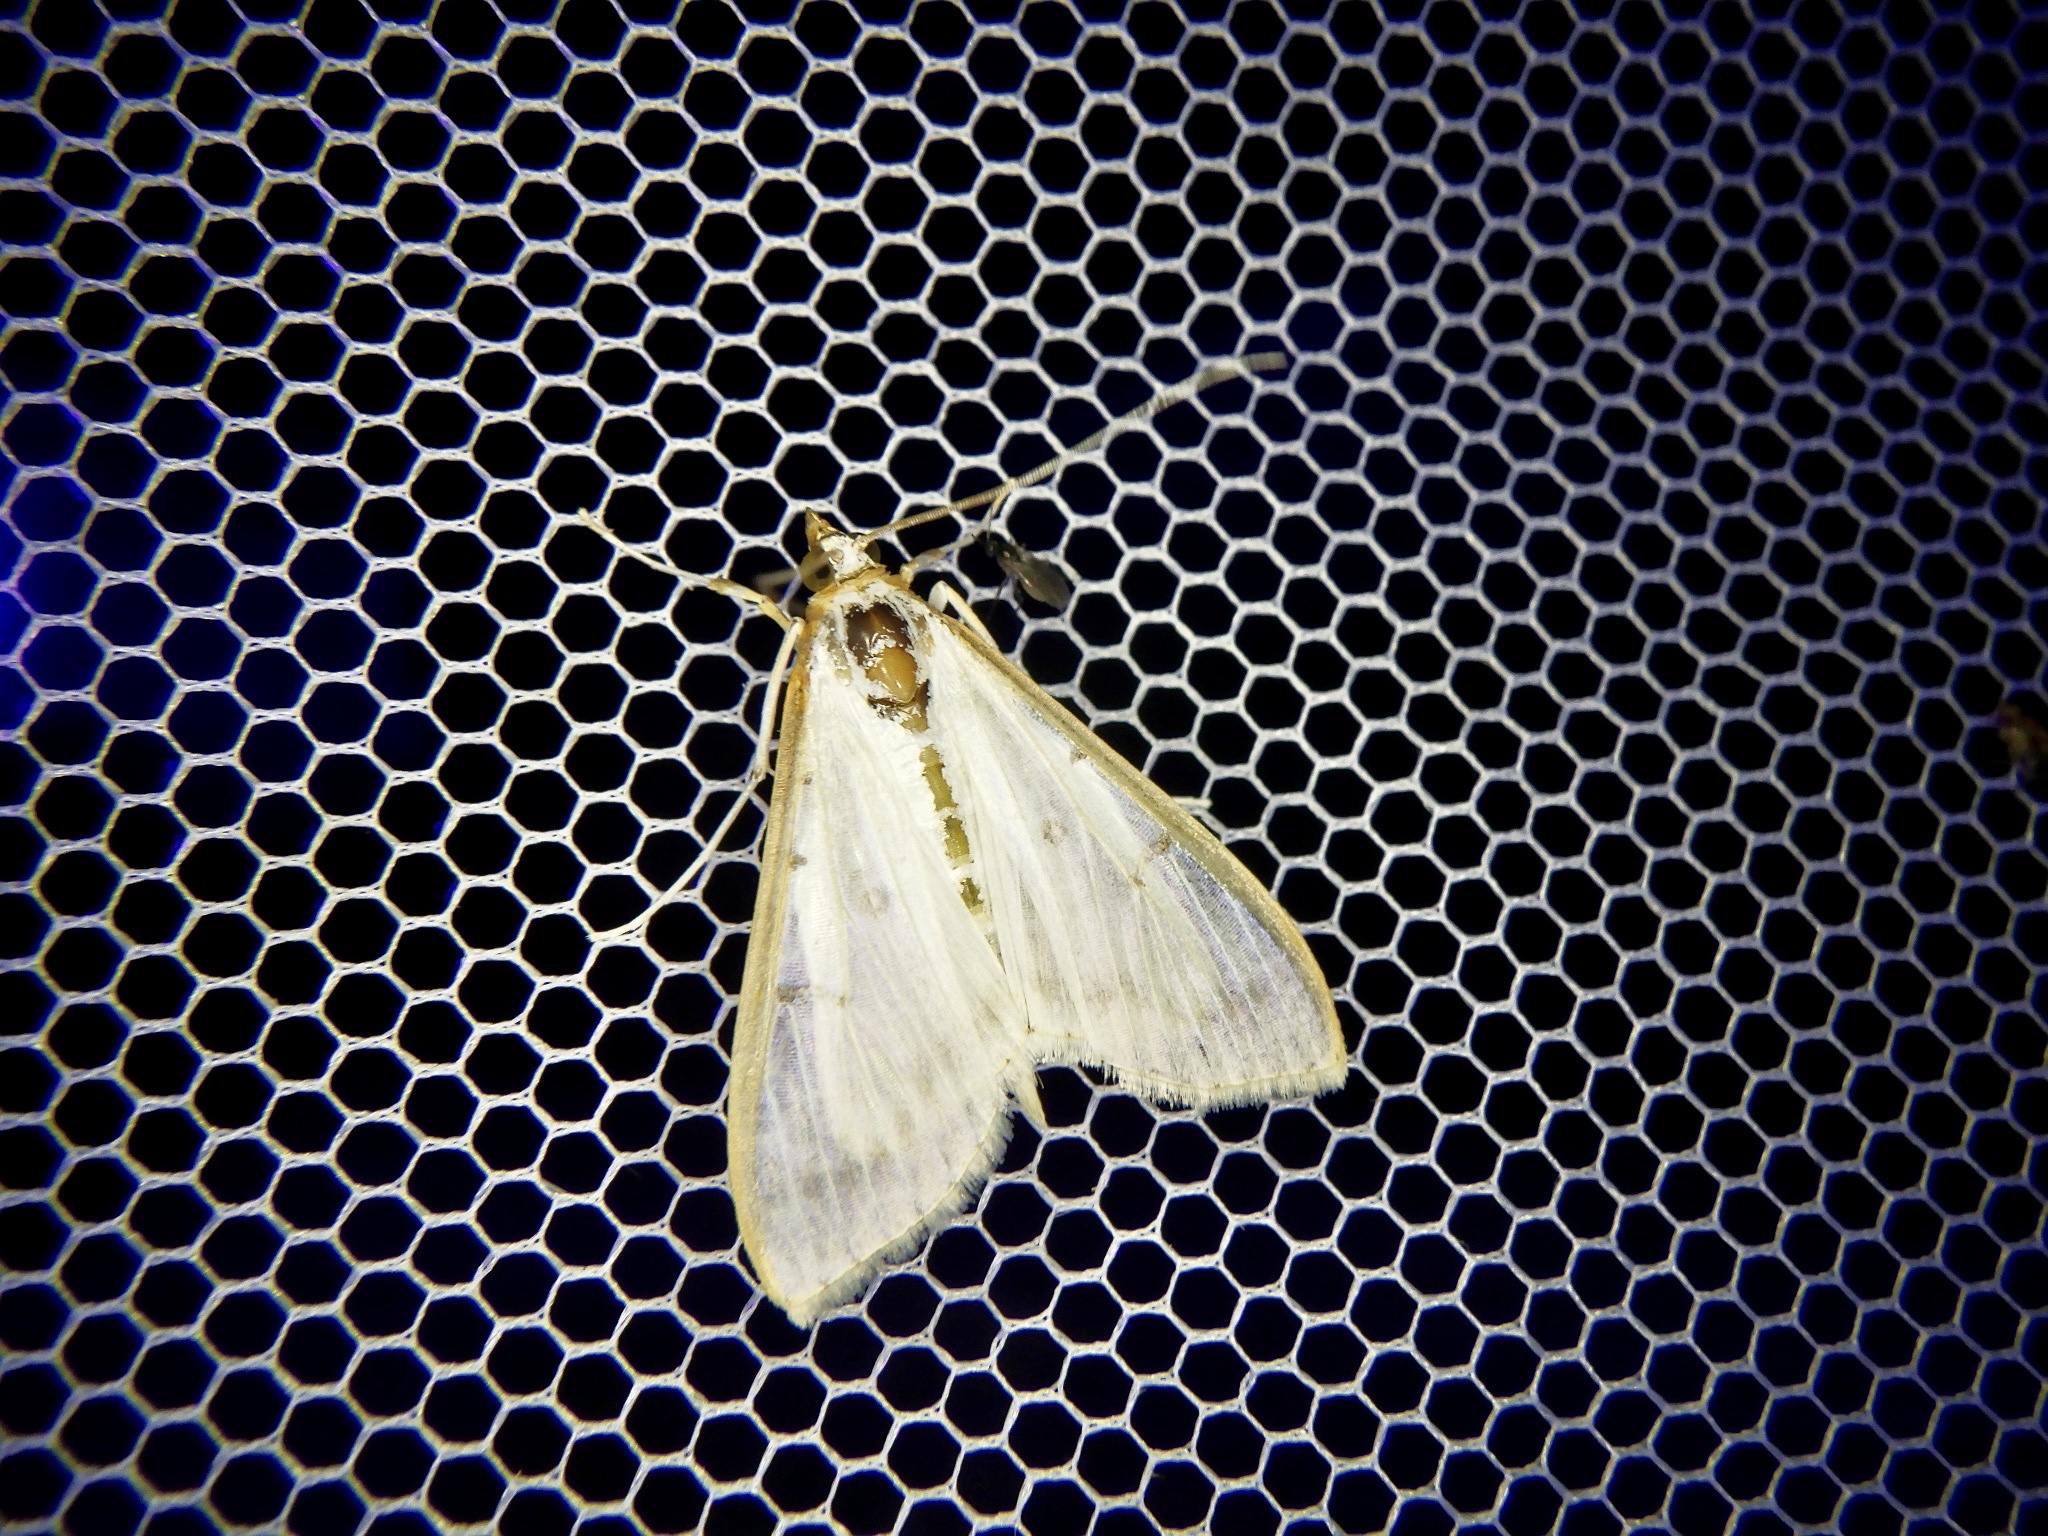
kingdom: Animalia
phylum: Arthropoda
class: Insecta
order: Lepidoptera
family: Crambidae
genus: Palpita
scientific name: Palpita nigropunctalis
